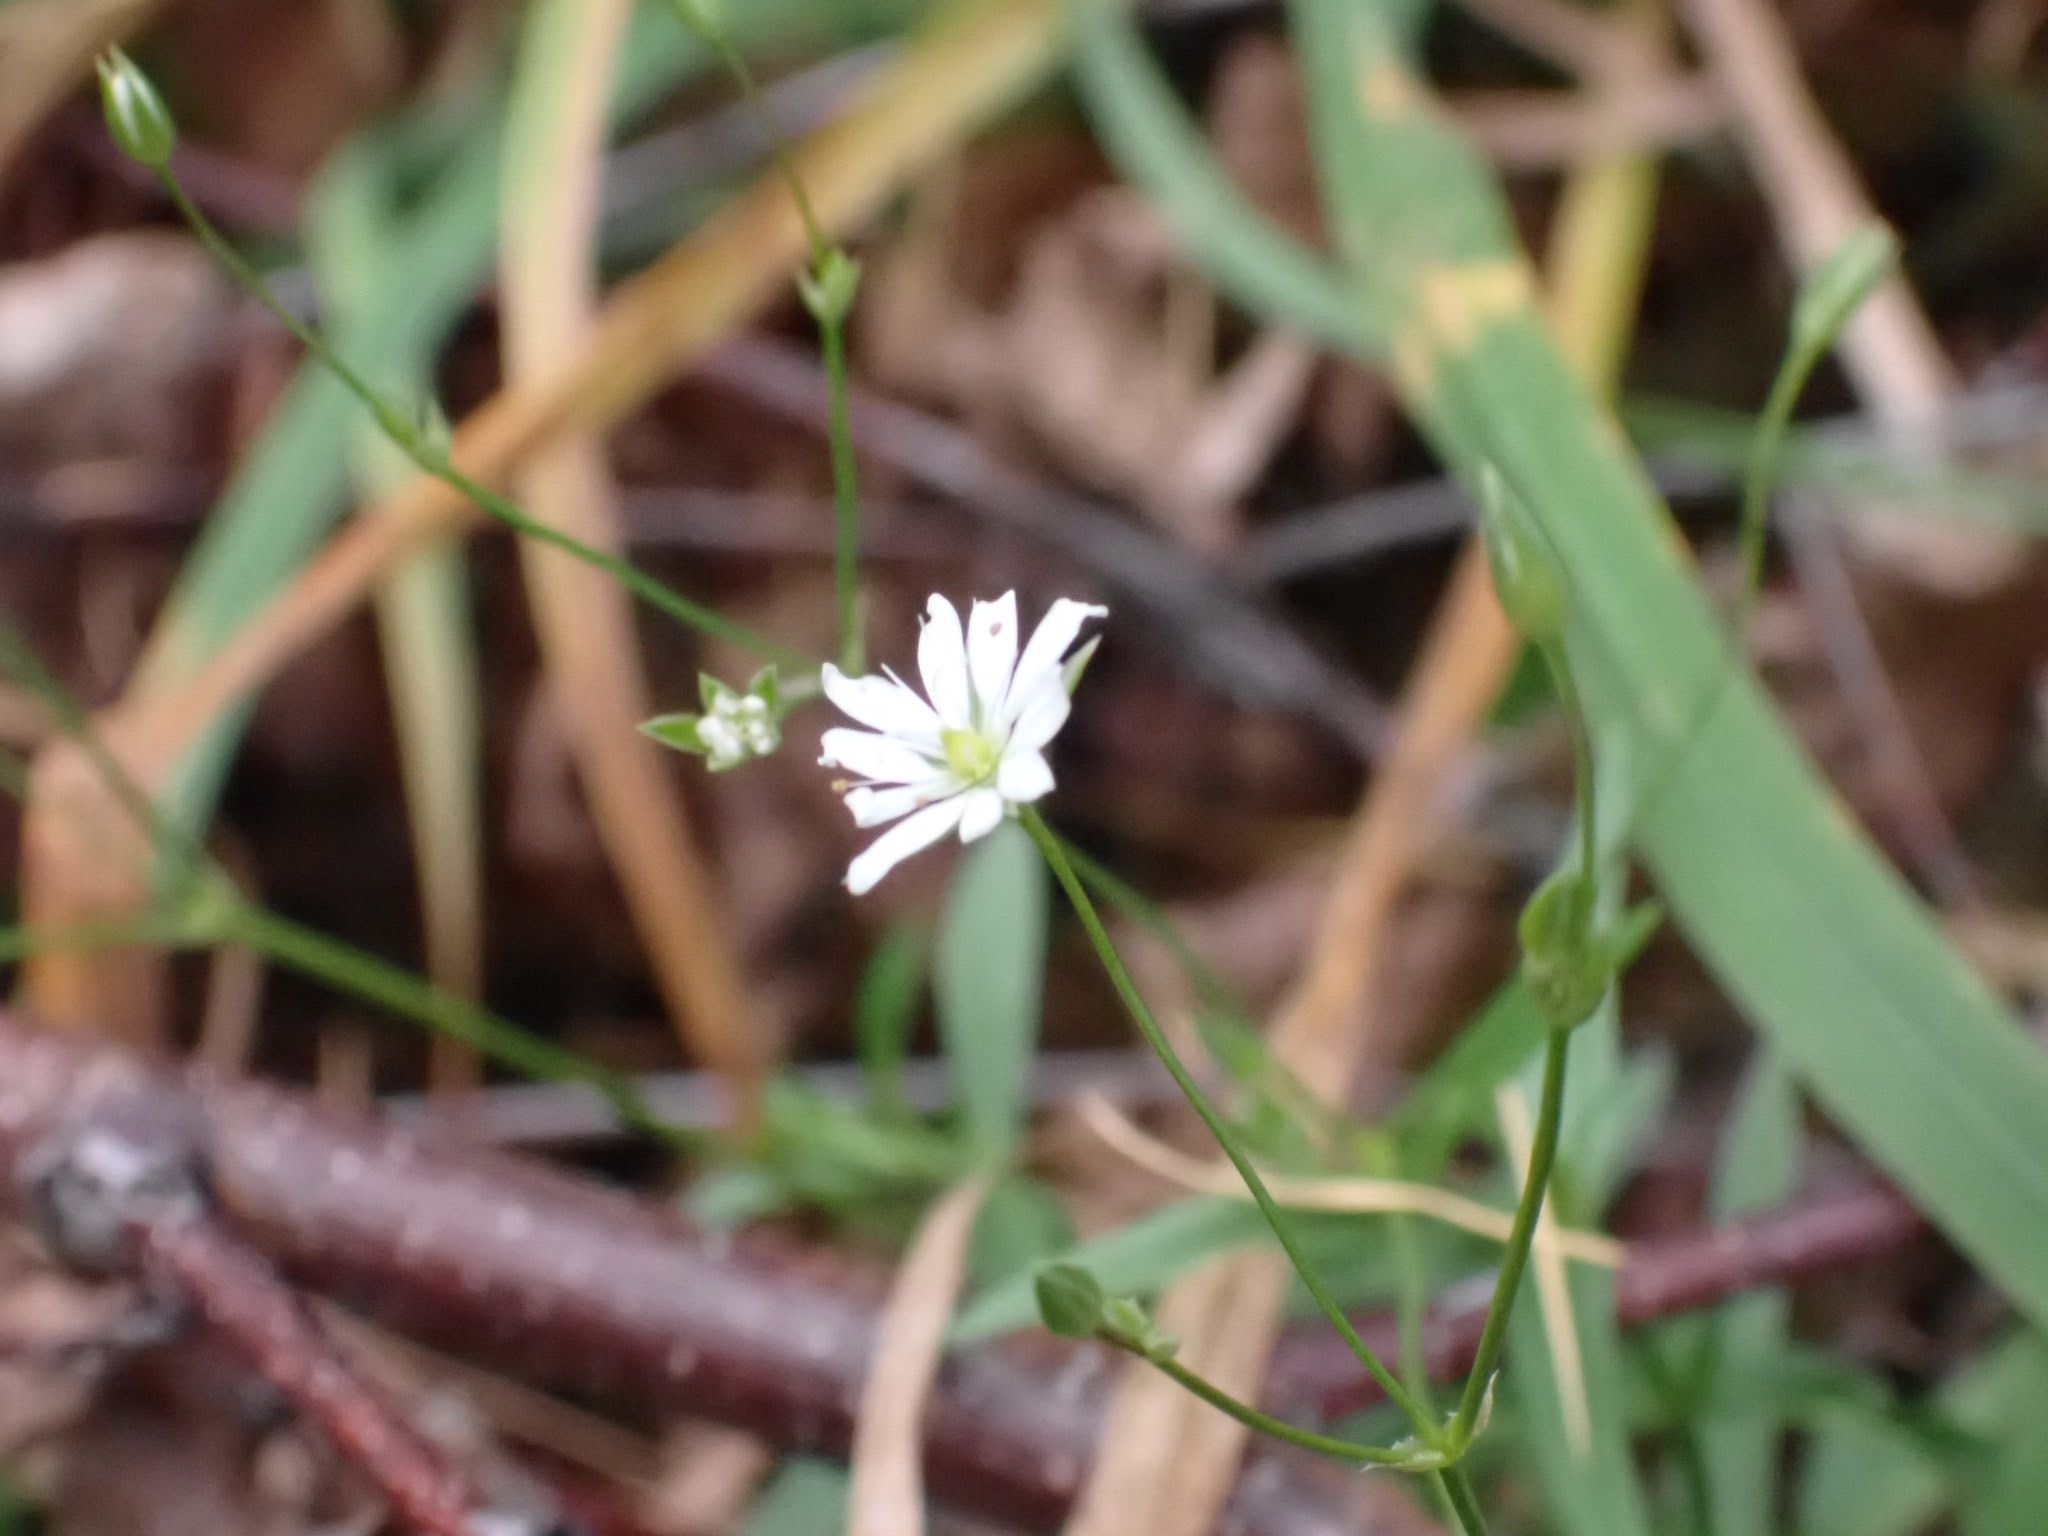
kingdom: Plantae
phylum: Tracheophyta
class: Magnoliopsida
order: Caryophyllales
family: Caryophyllaceae
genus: Stellaria
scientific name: Stellaria graminea
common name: Grass-like starwort
